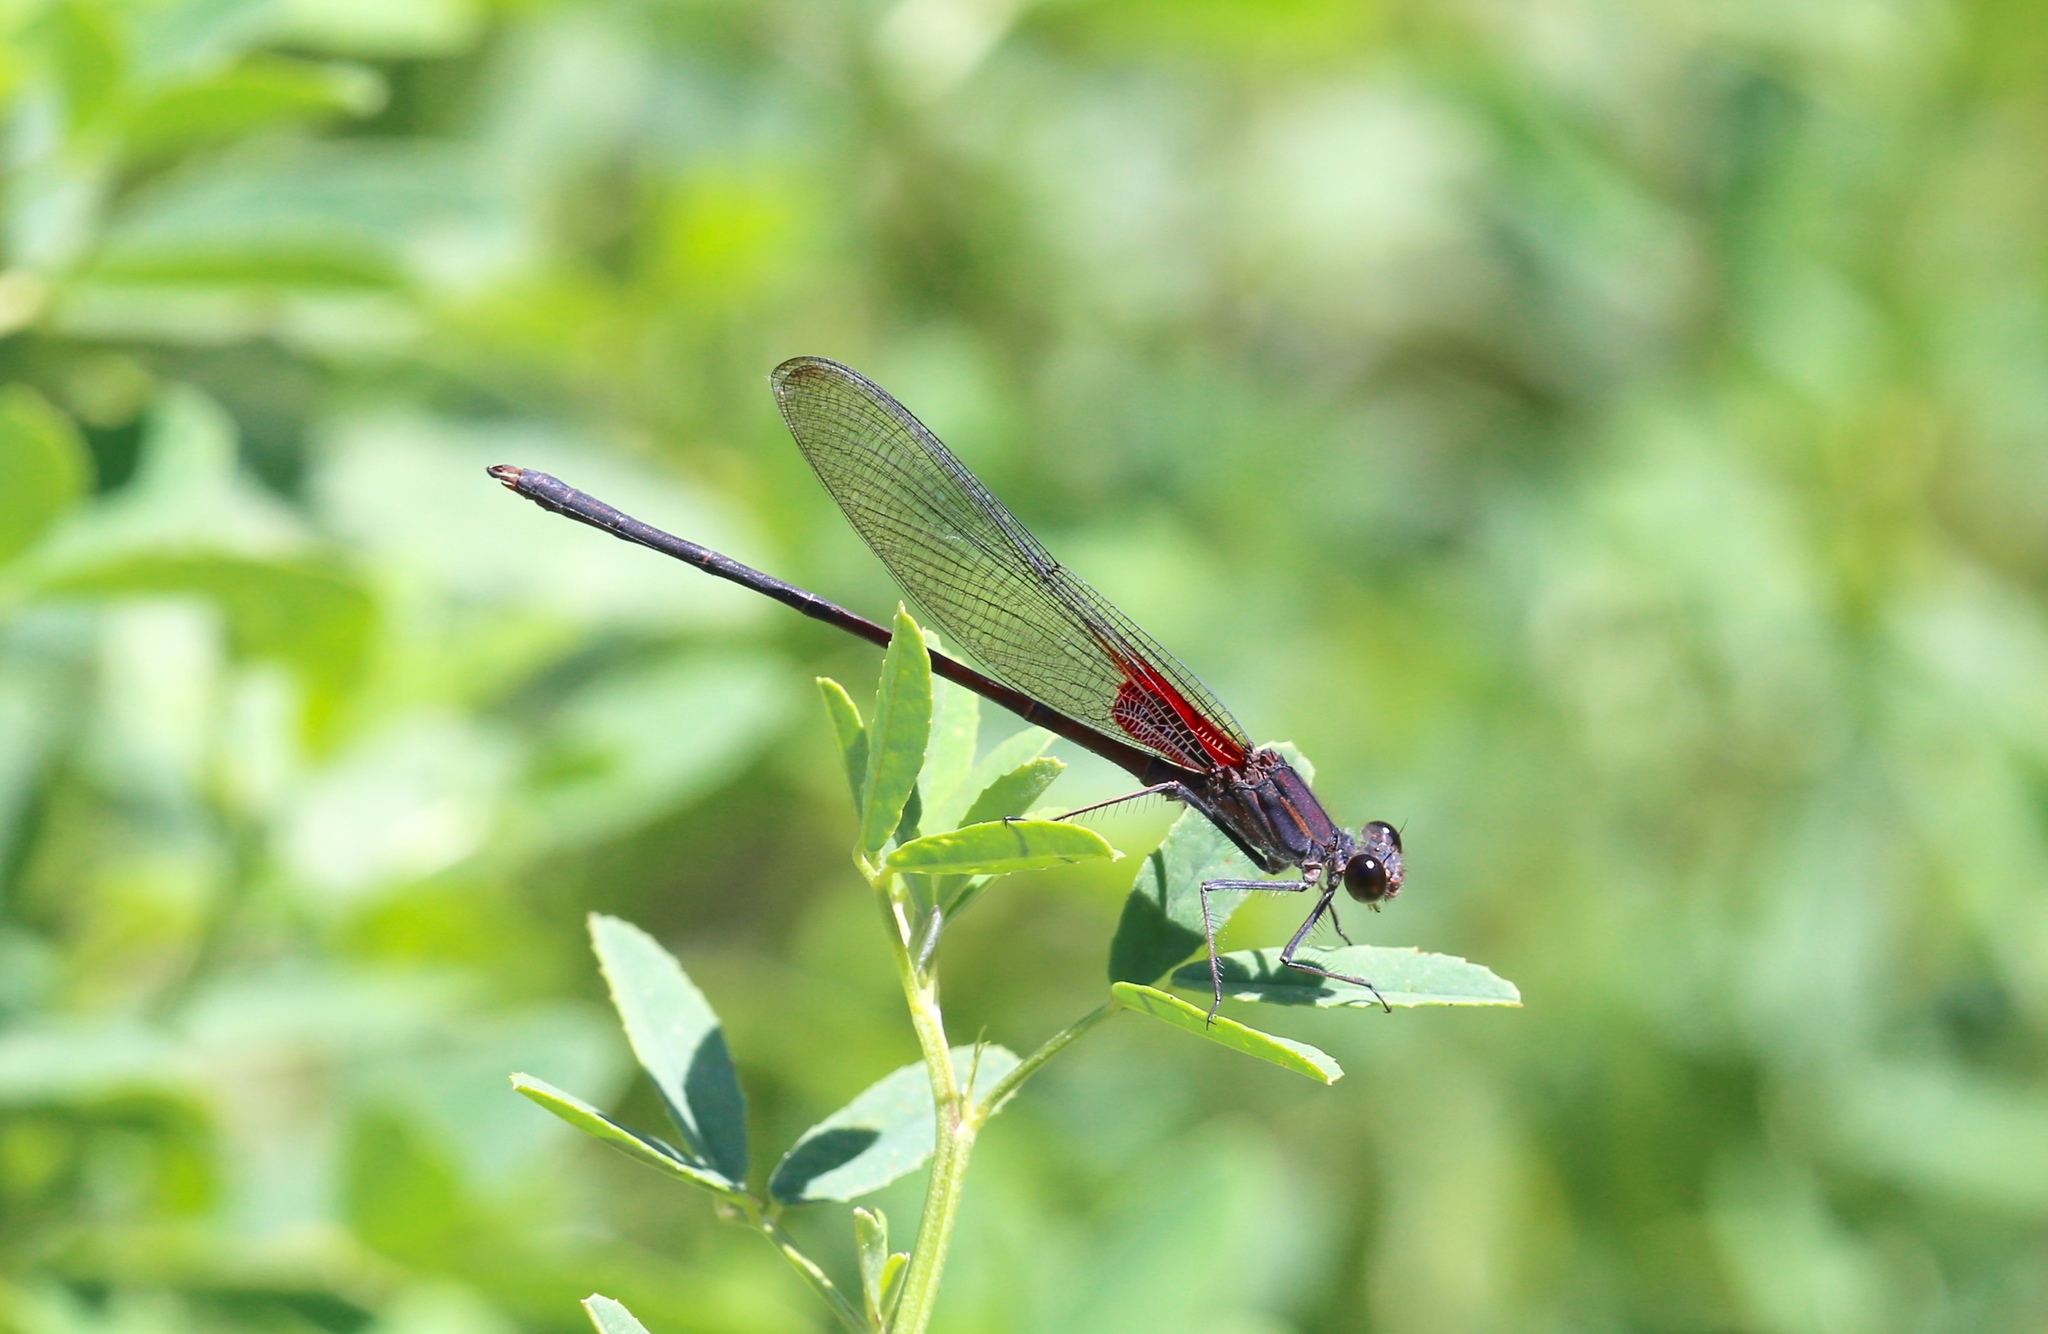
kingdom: Animalia
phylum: Arthropoda
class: Insecta
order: Odonata
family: Calopterygidae
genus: Hetaerina
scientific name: Hetaerina vulnerata
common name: Canyon rubyspot
